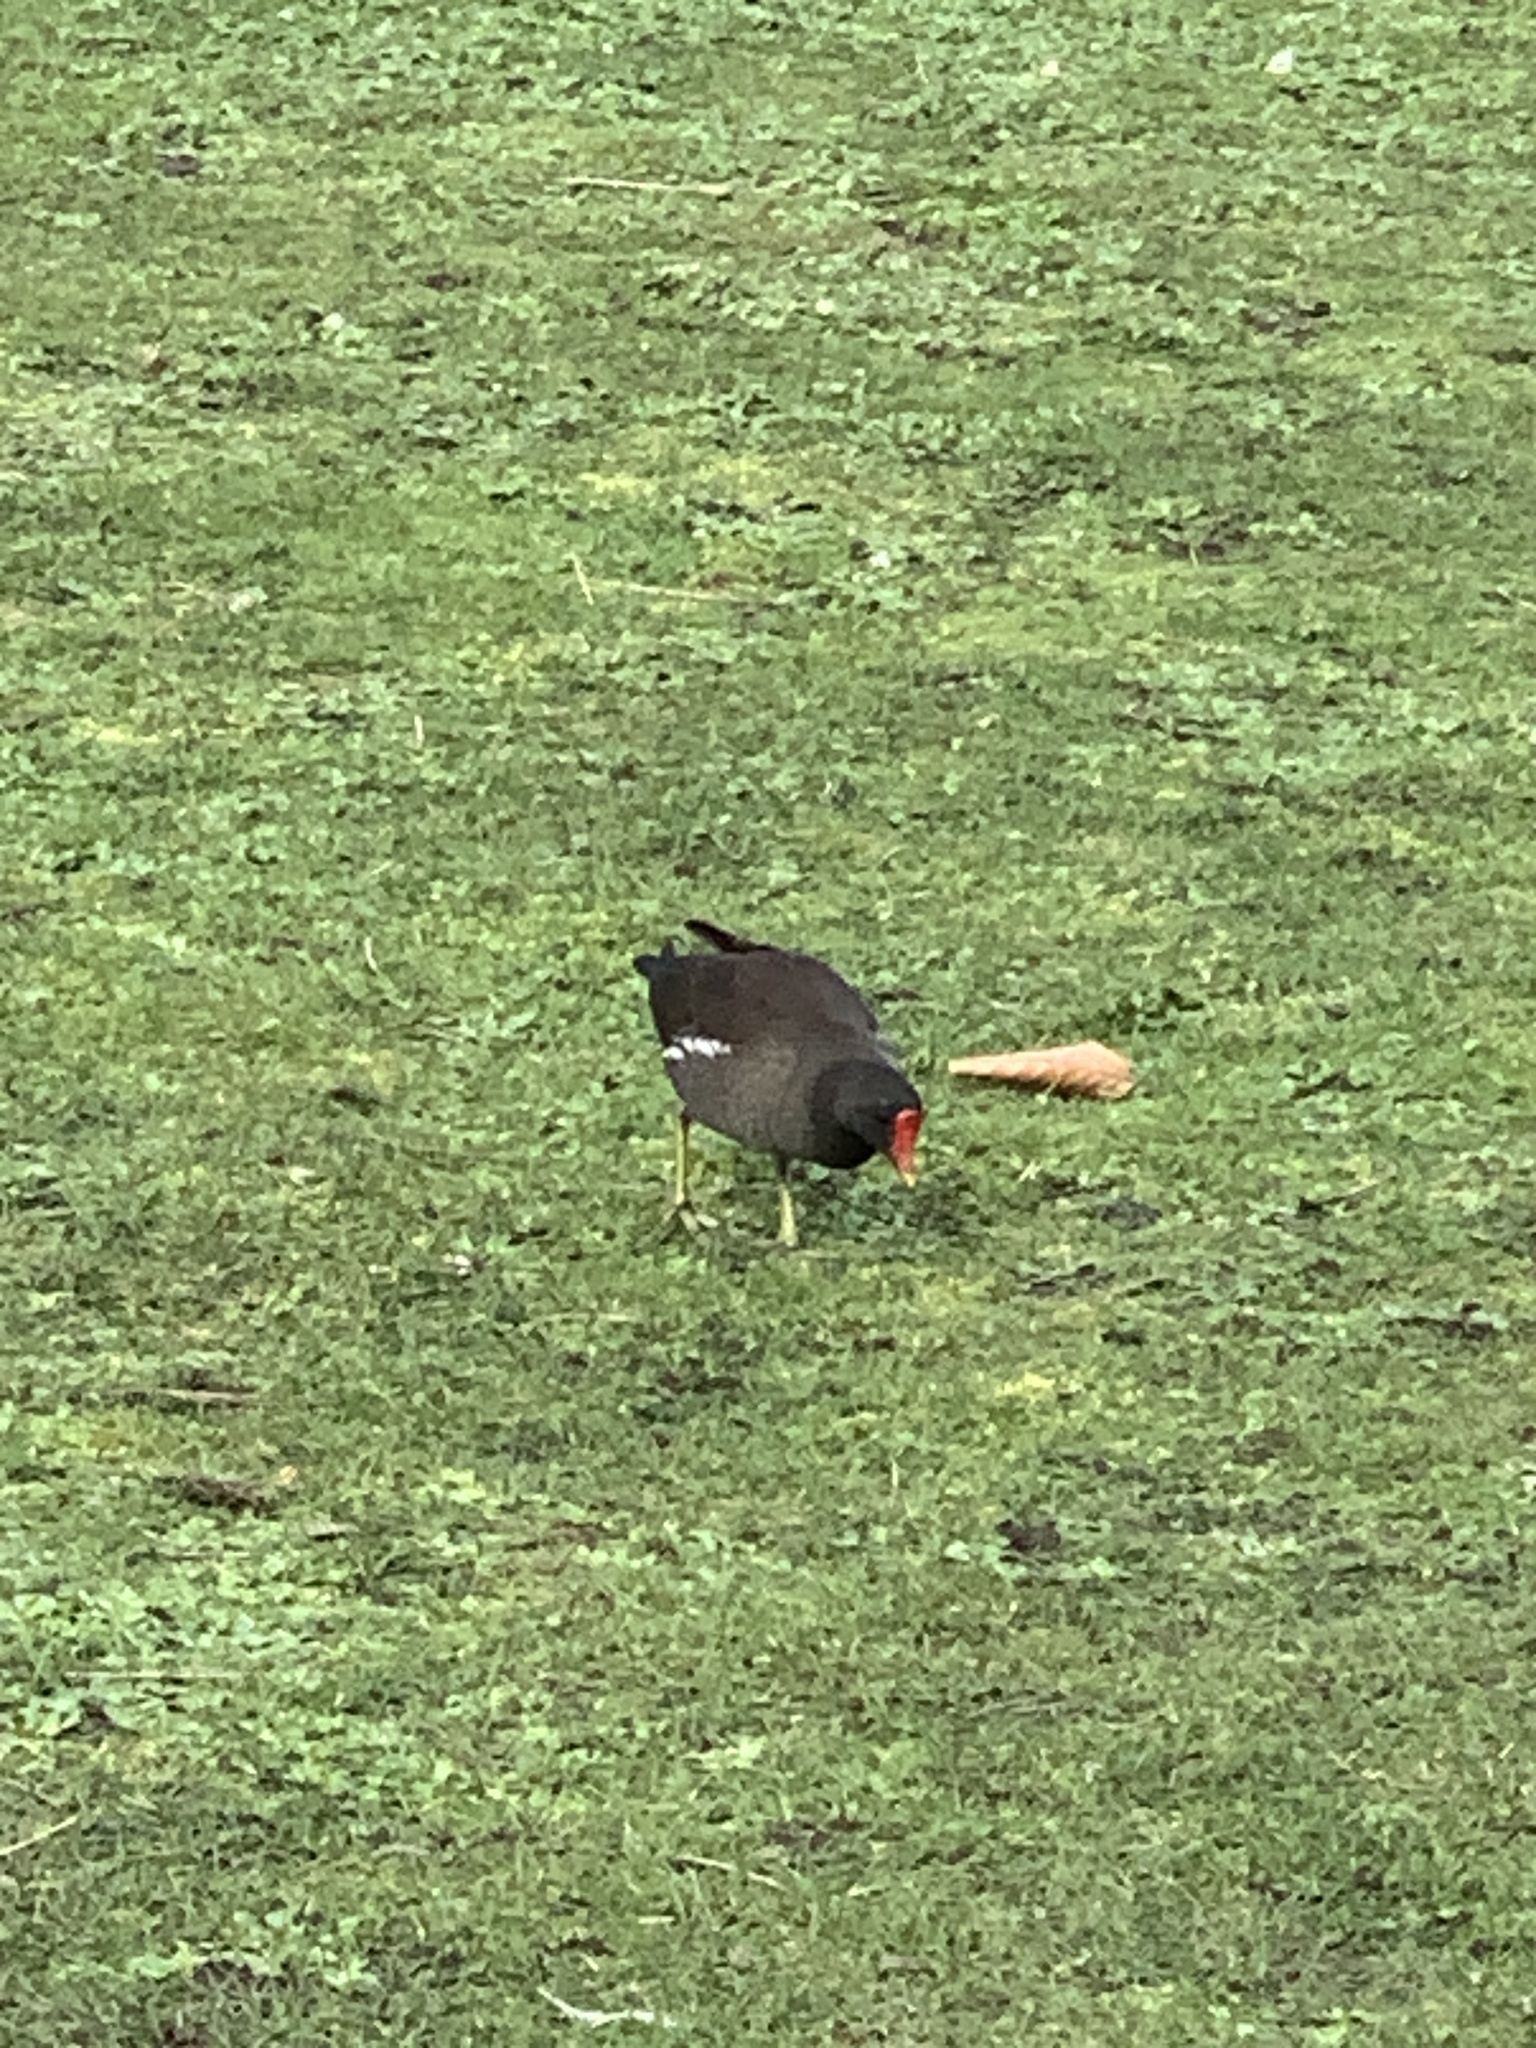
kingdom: Animalia
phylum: Chordata
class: Aves
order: Gruiformes
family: Rallidae
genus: Gallinula
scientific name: Gallinula chloropus
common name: Common moorhen
